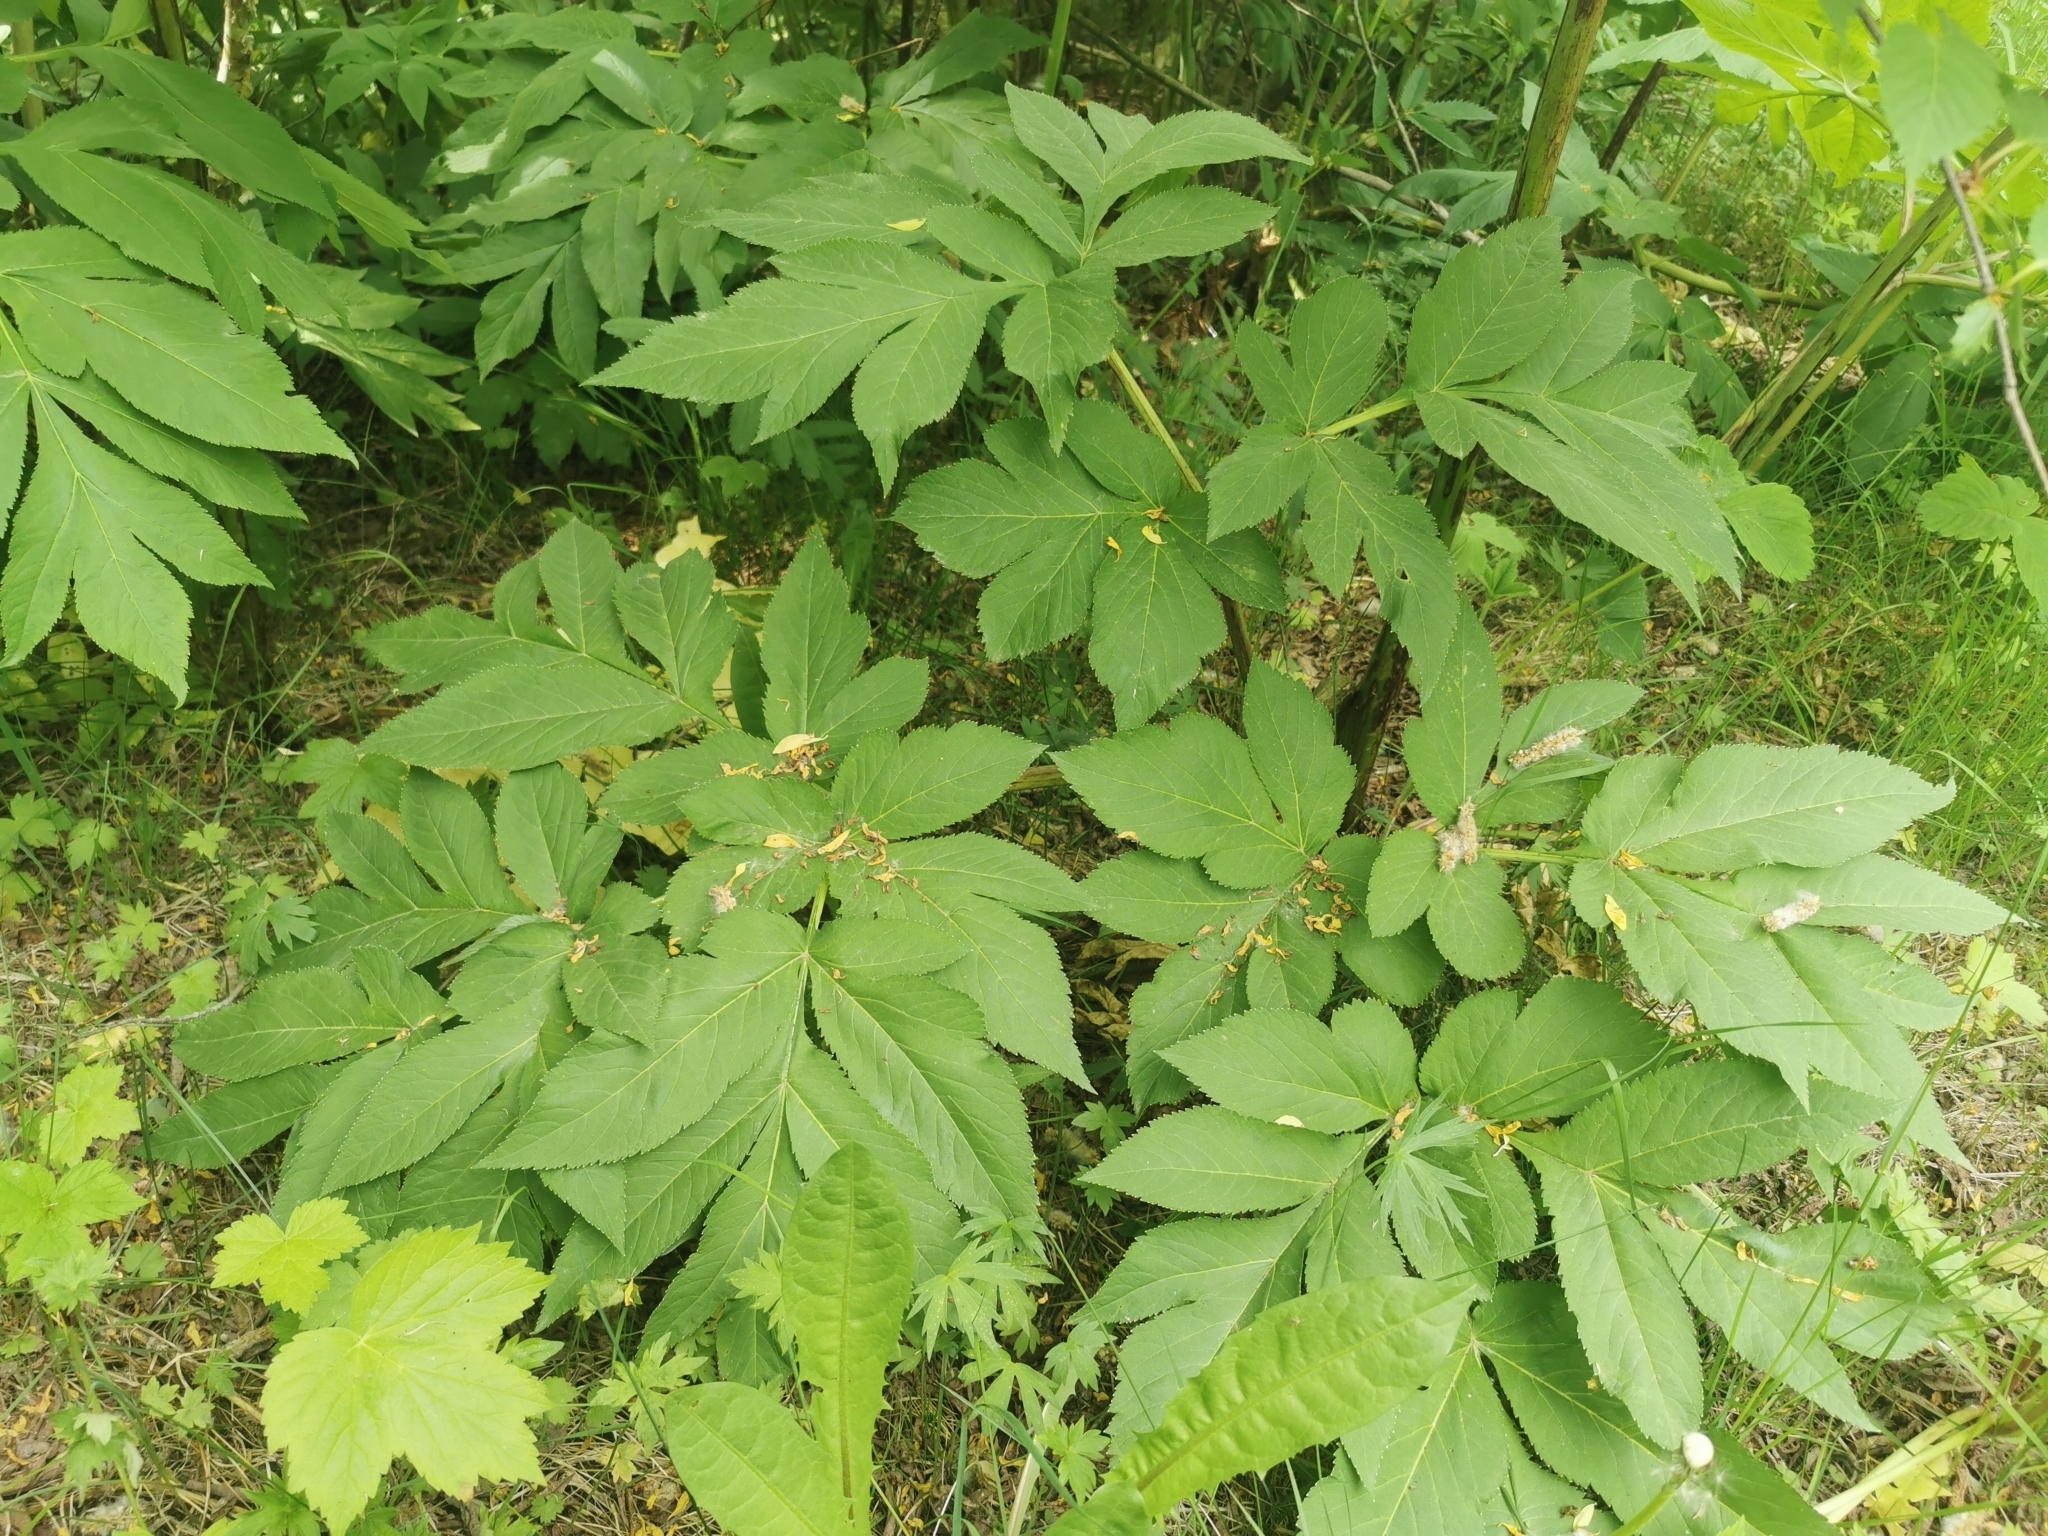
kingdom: Plantae
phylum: Tracheophyta
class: Magnoliopsida
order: Apiales
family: Apiaceae
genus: Angelica
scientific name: Angelica ursina
